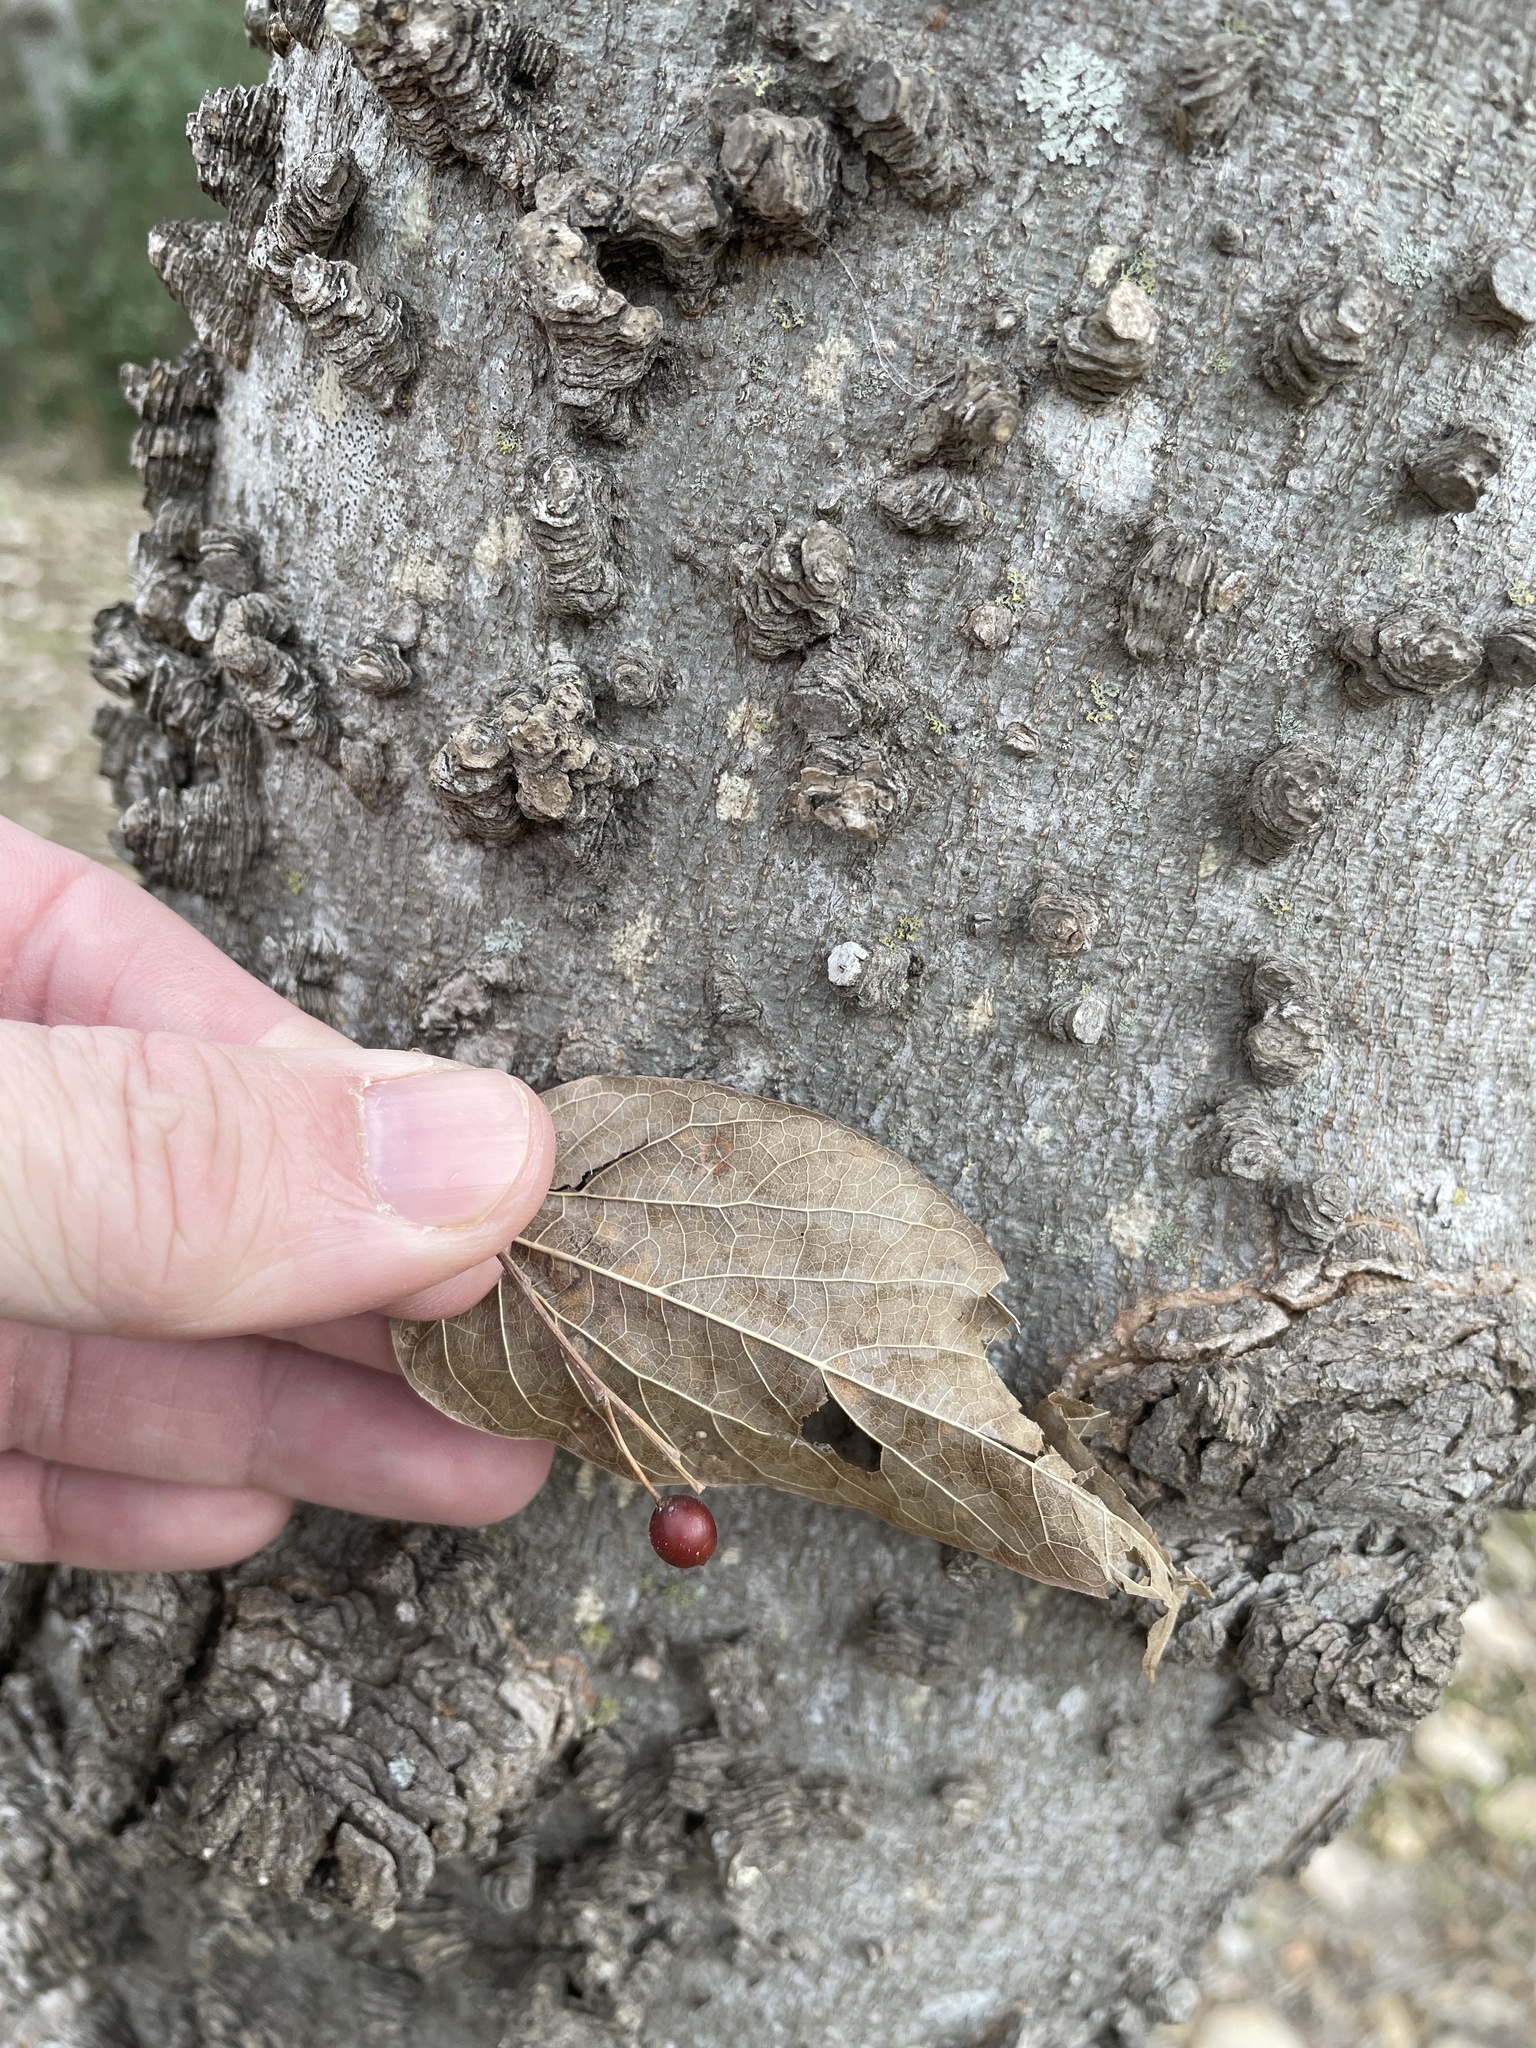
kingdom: Plantae
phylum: Tracheophyta
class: Magnoliopsida
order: Rosales
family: Cannabaceae
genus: Celtis
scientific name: Celtis laevigata
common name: Sugarberry
